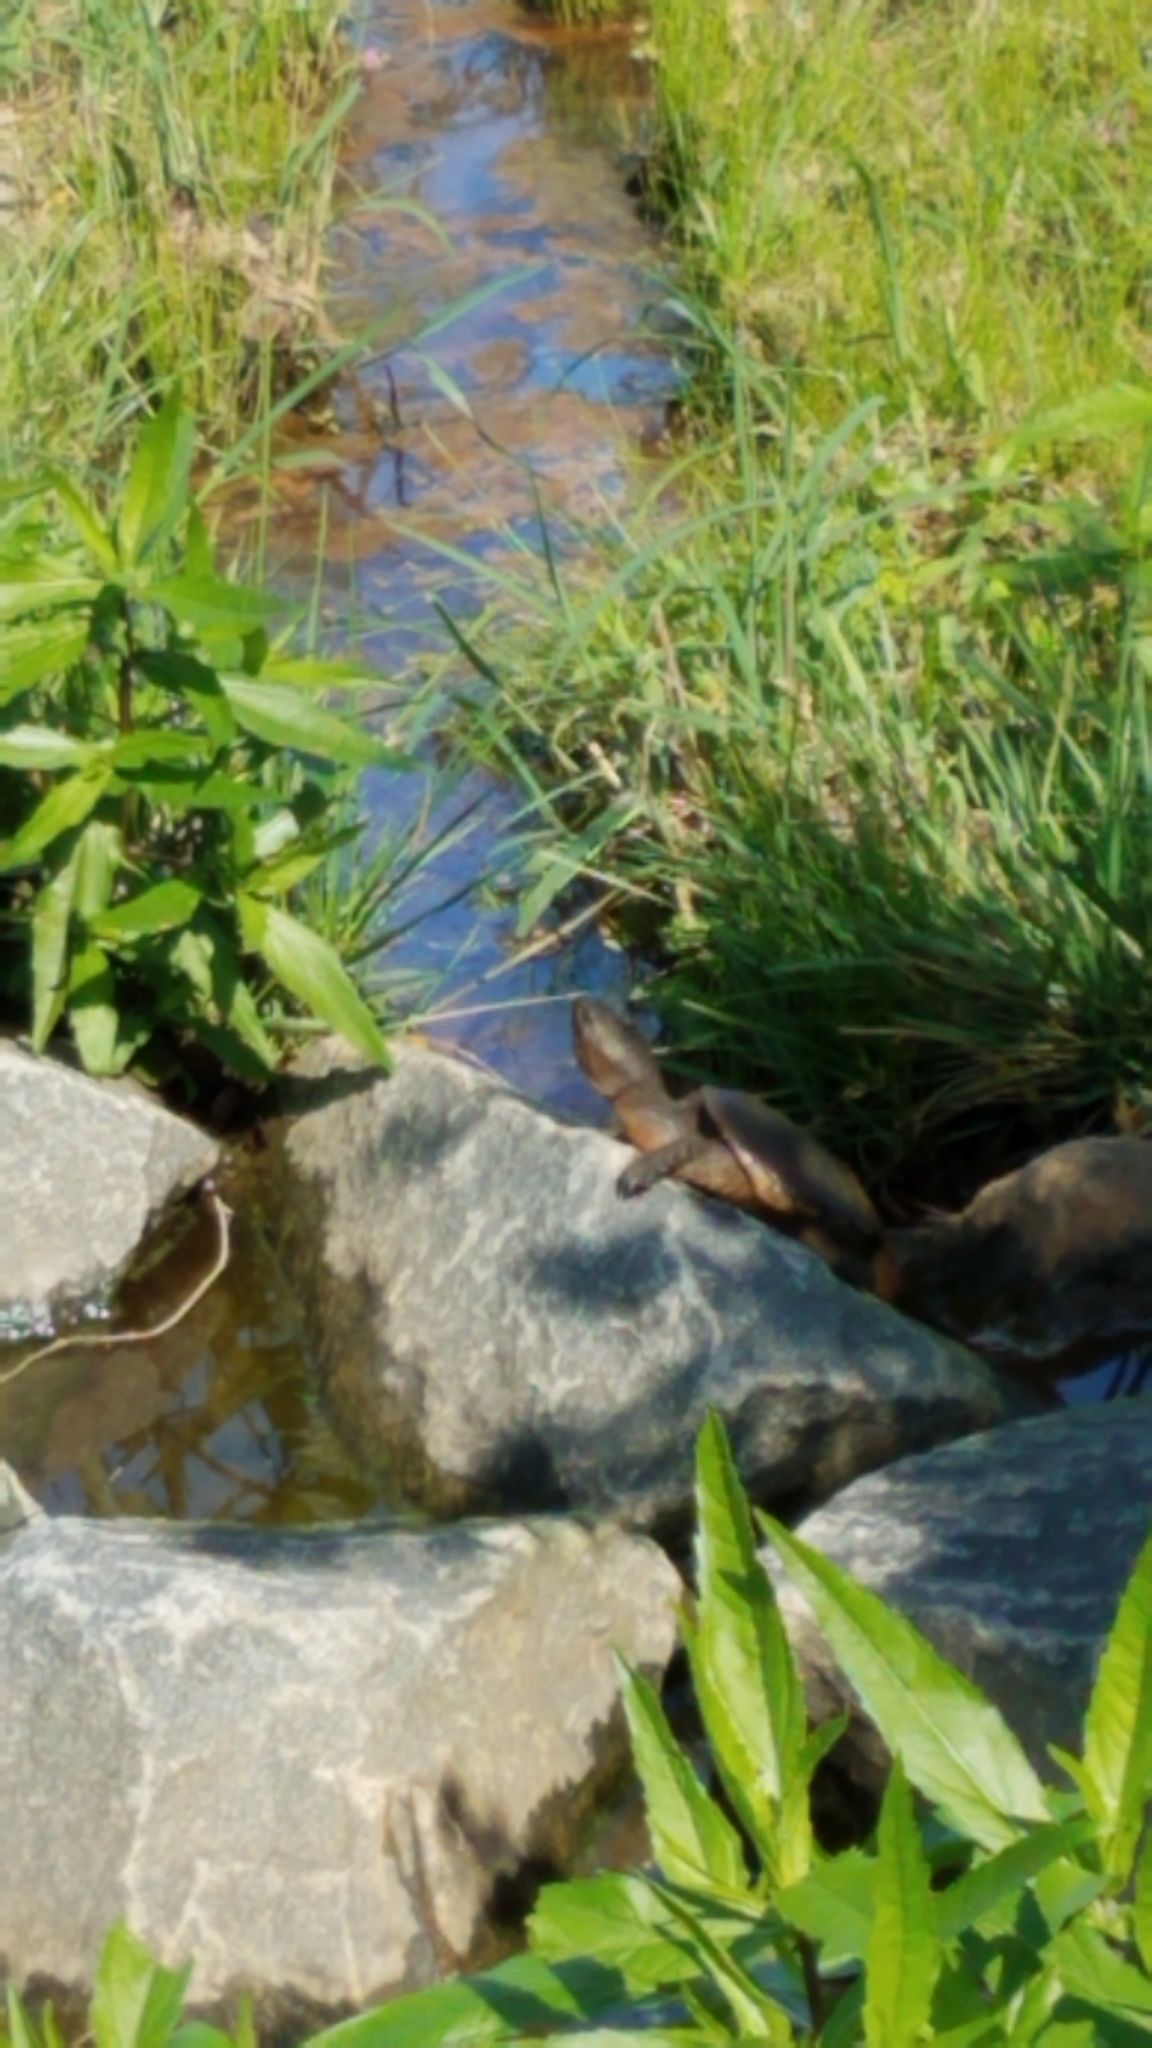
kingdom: Animalia
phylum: Chordata
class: Testudines
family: Chelydridae
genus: Chelydra
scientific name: Chelydra serpentina
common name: Common snapping turtle
